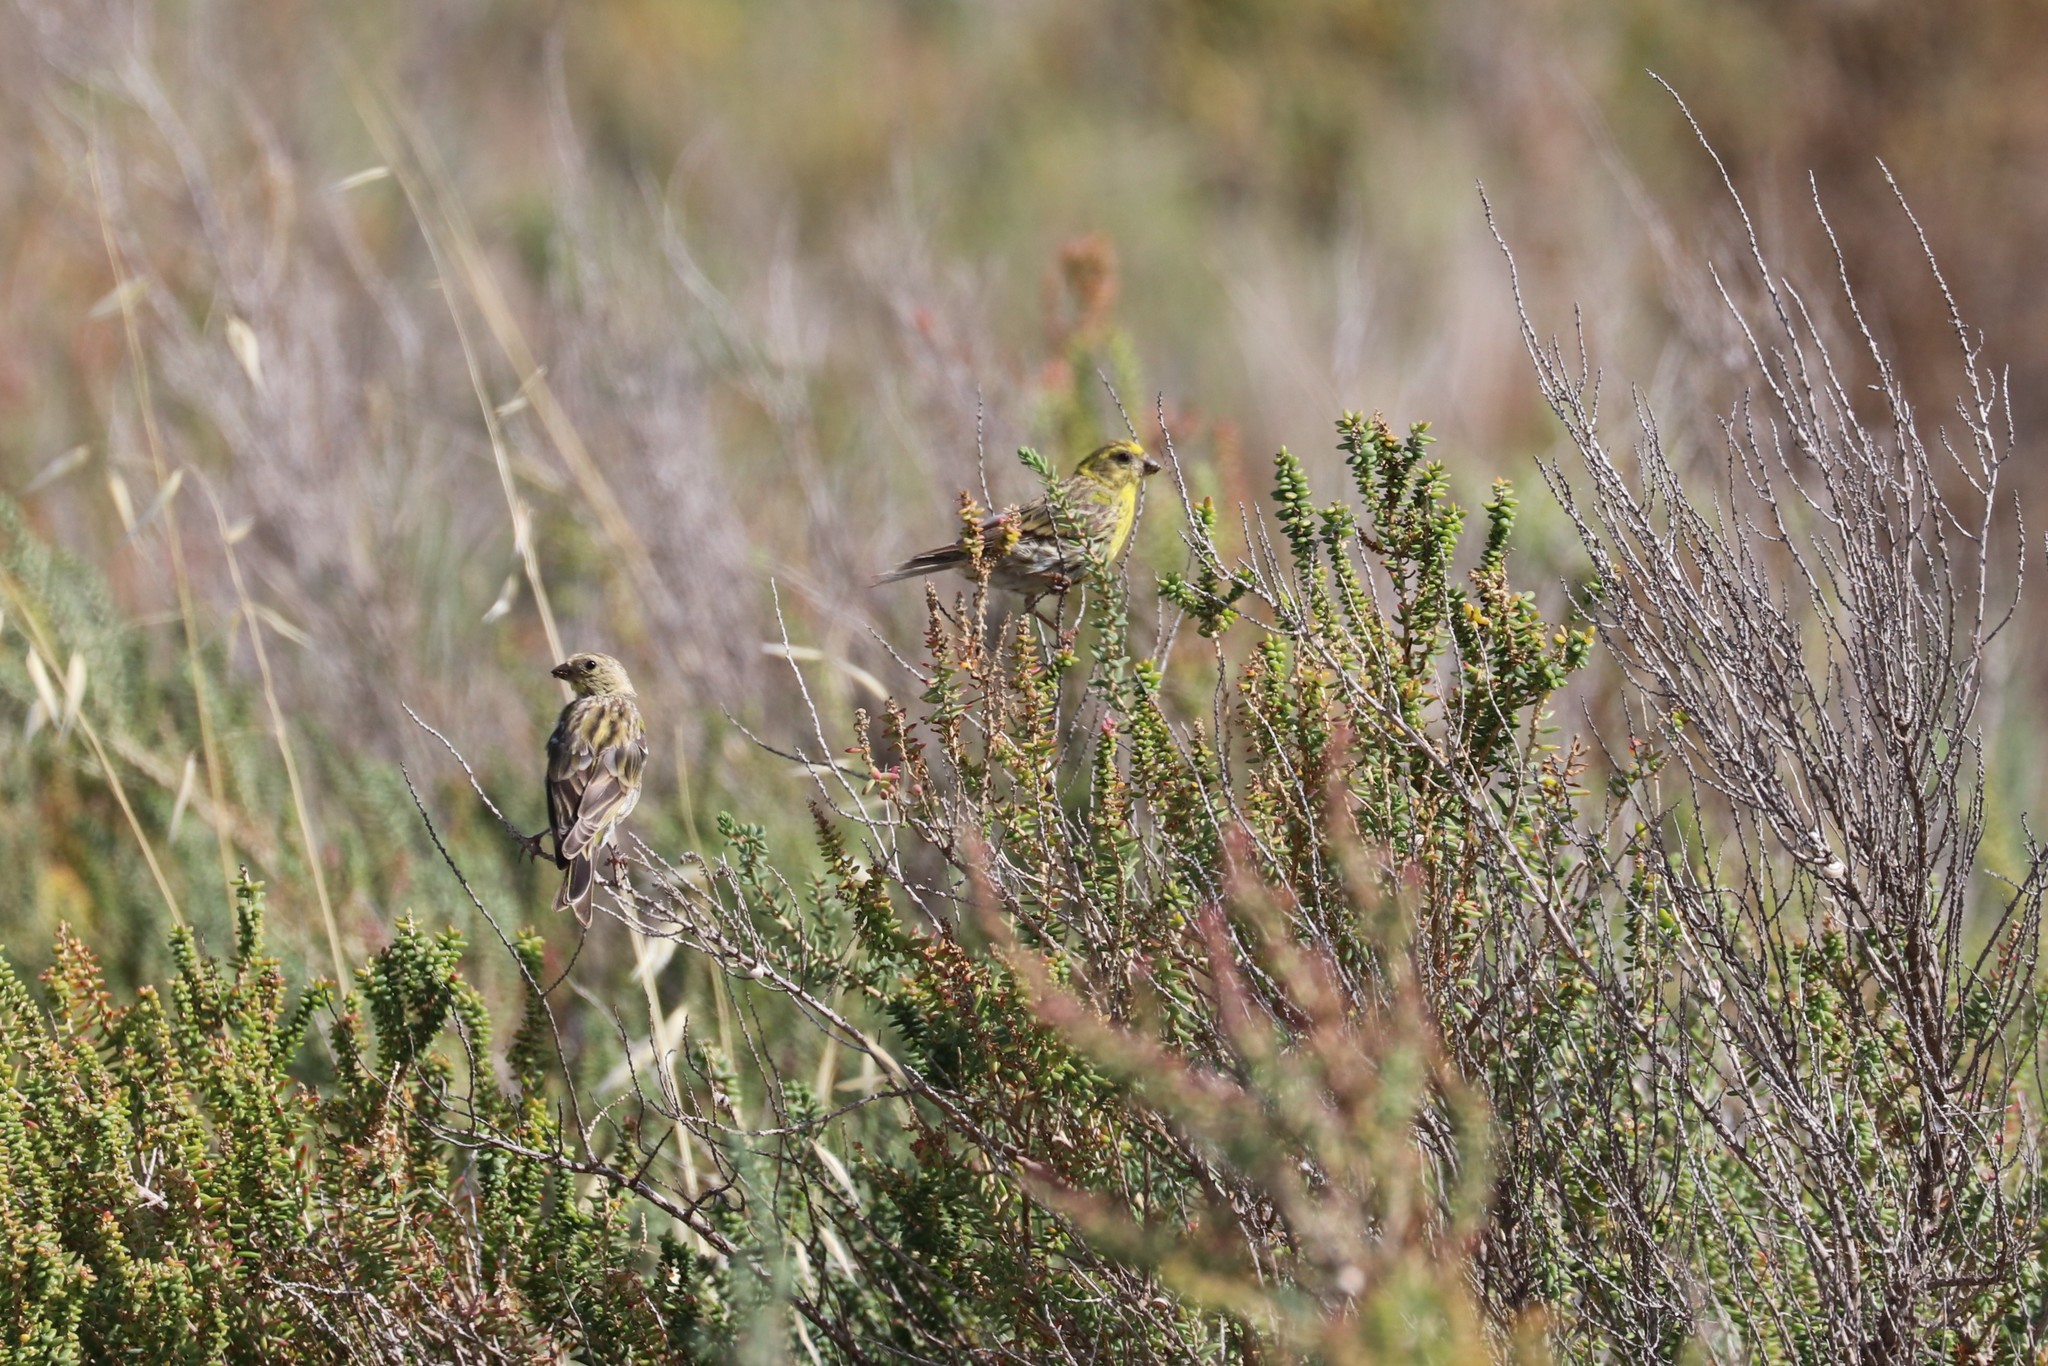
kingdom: Animalia
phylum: Chordata
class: Aves
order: Passeriformes
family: Fringillidae
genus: Serinus
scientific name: Serinus serinus
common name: European serin
